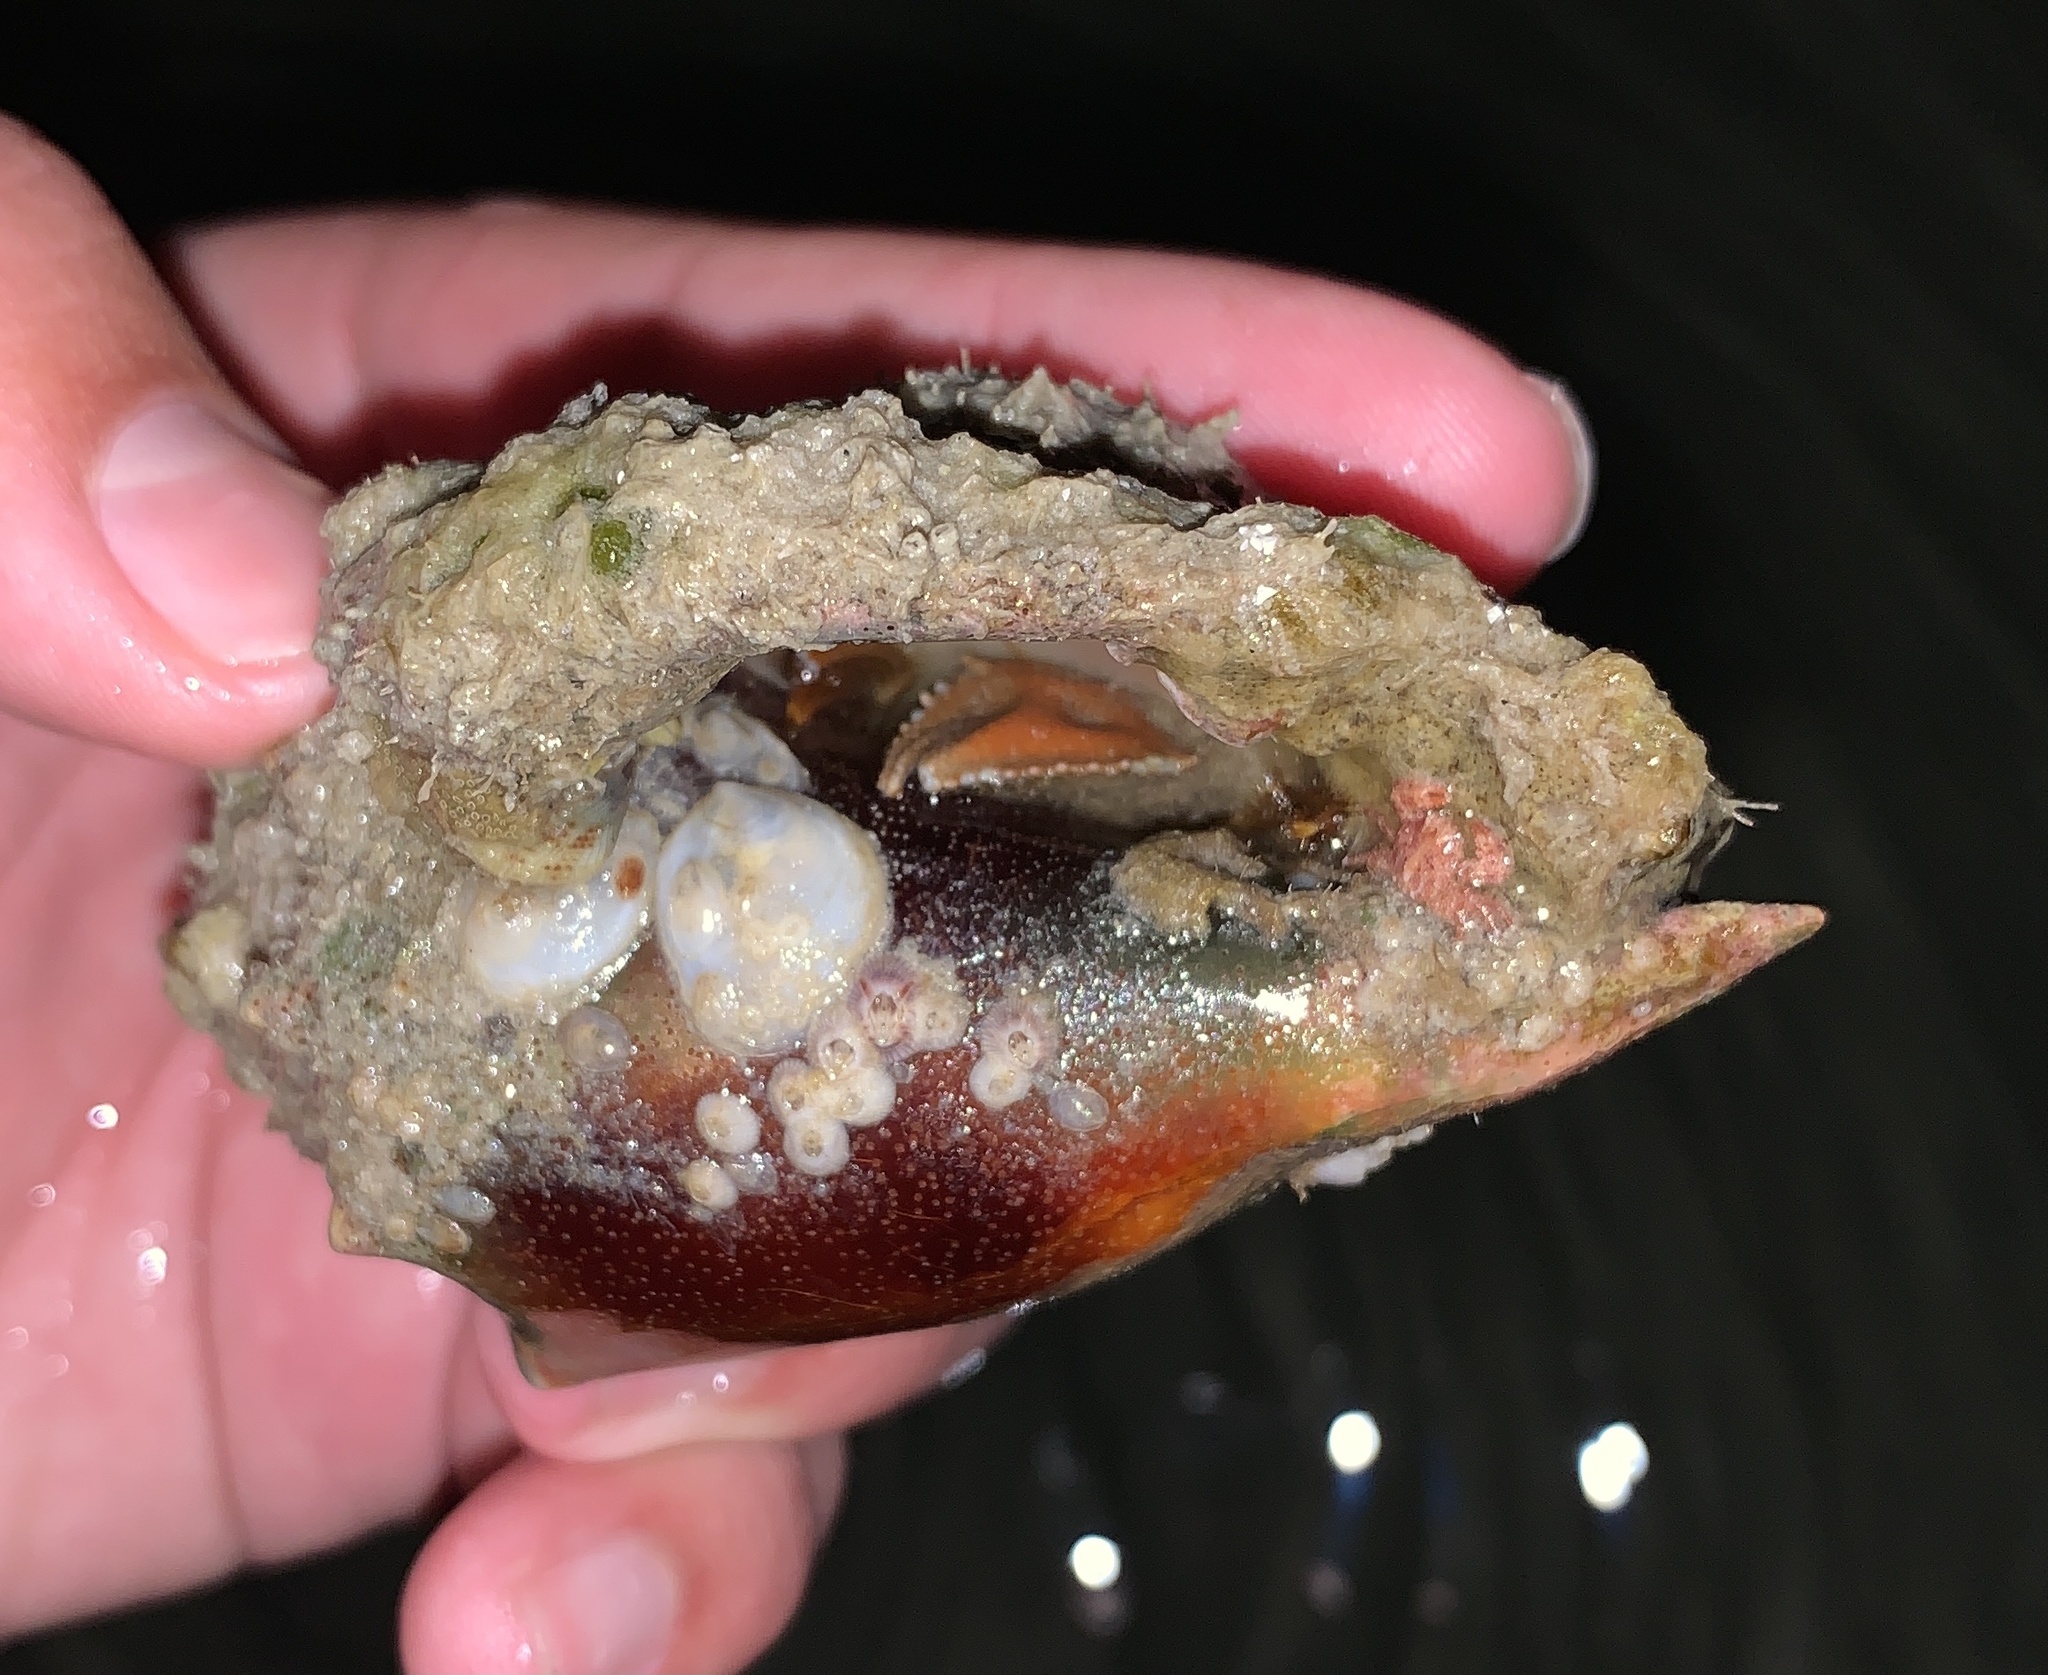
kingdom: Animalia
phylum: Arthropoda
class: Malacostraca
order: Decapoda
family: Paguridae
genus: Pagurus
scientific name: Pagurus impressus
